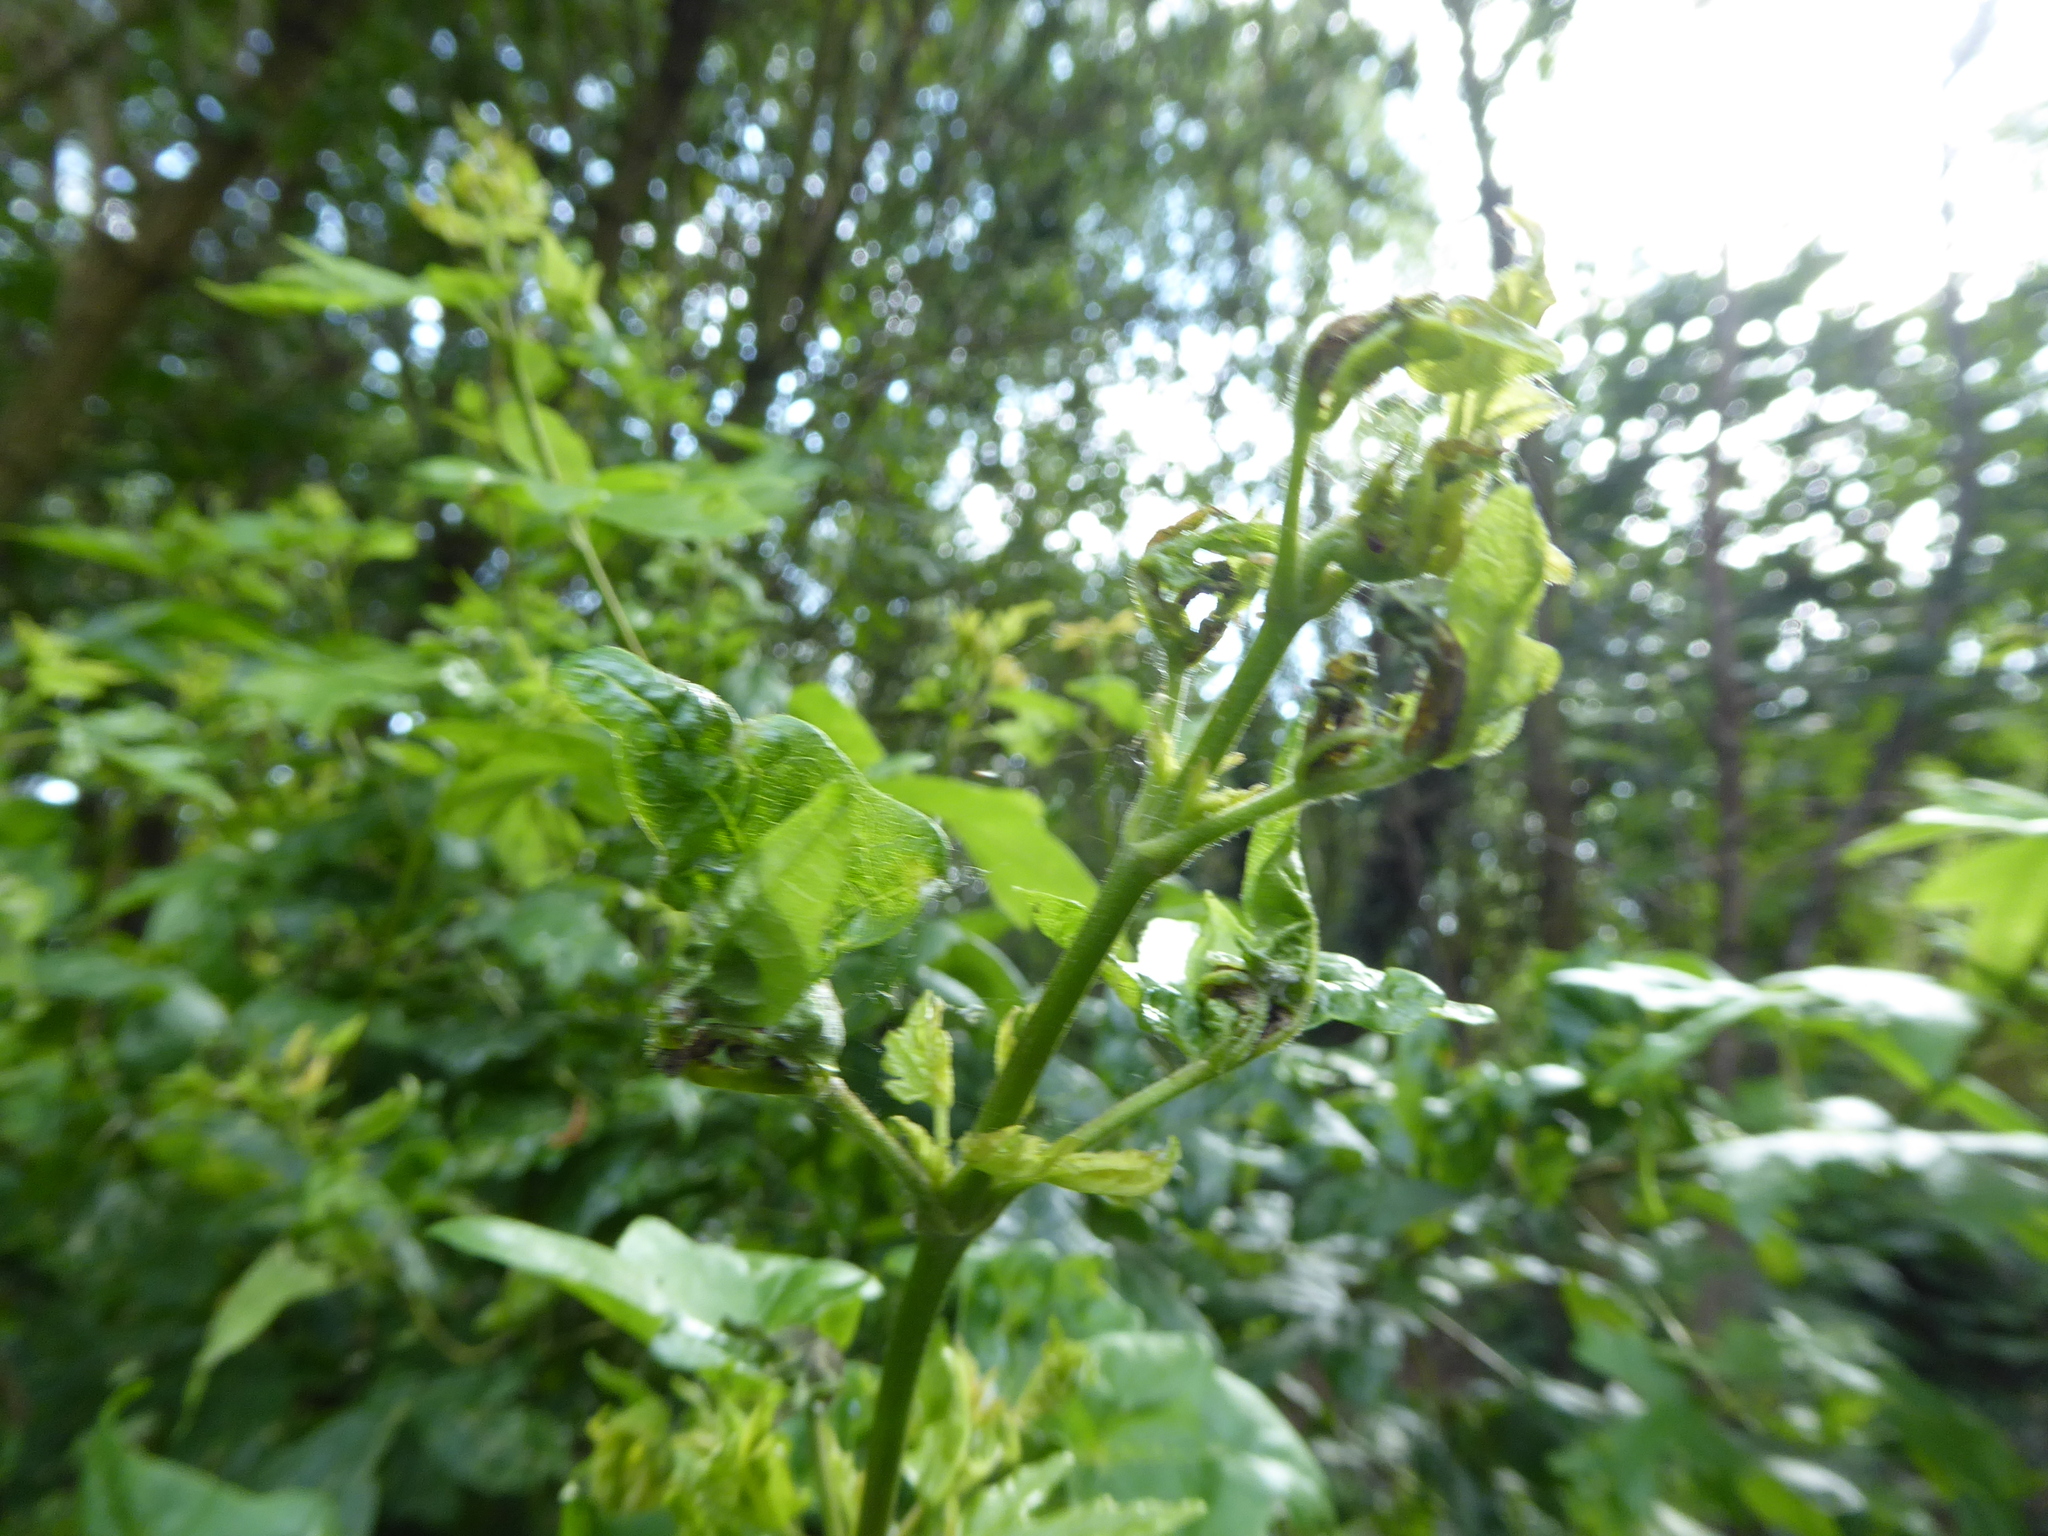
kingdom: Plantae
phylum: Tracheophyta
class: Magnoliopsida
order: Sapindales
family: Sapindaceae
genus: Acer
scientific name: Acer campestre
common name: Field maple
